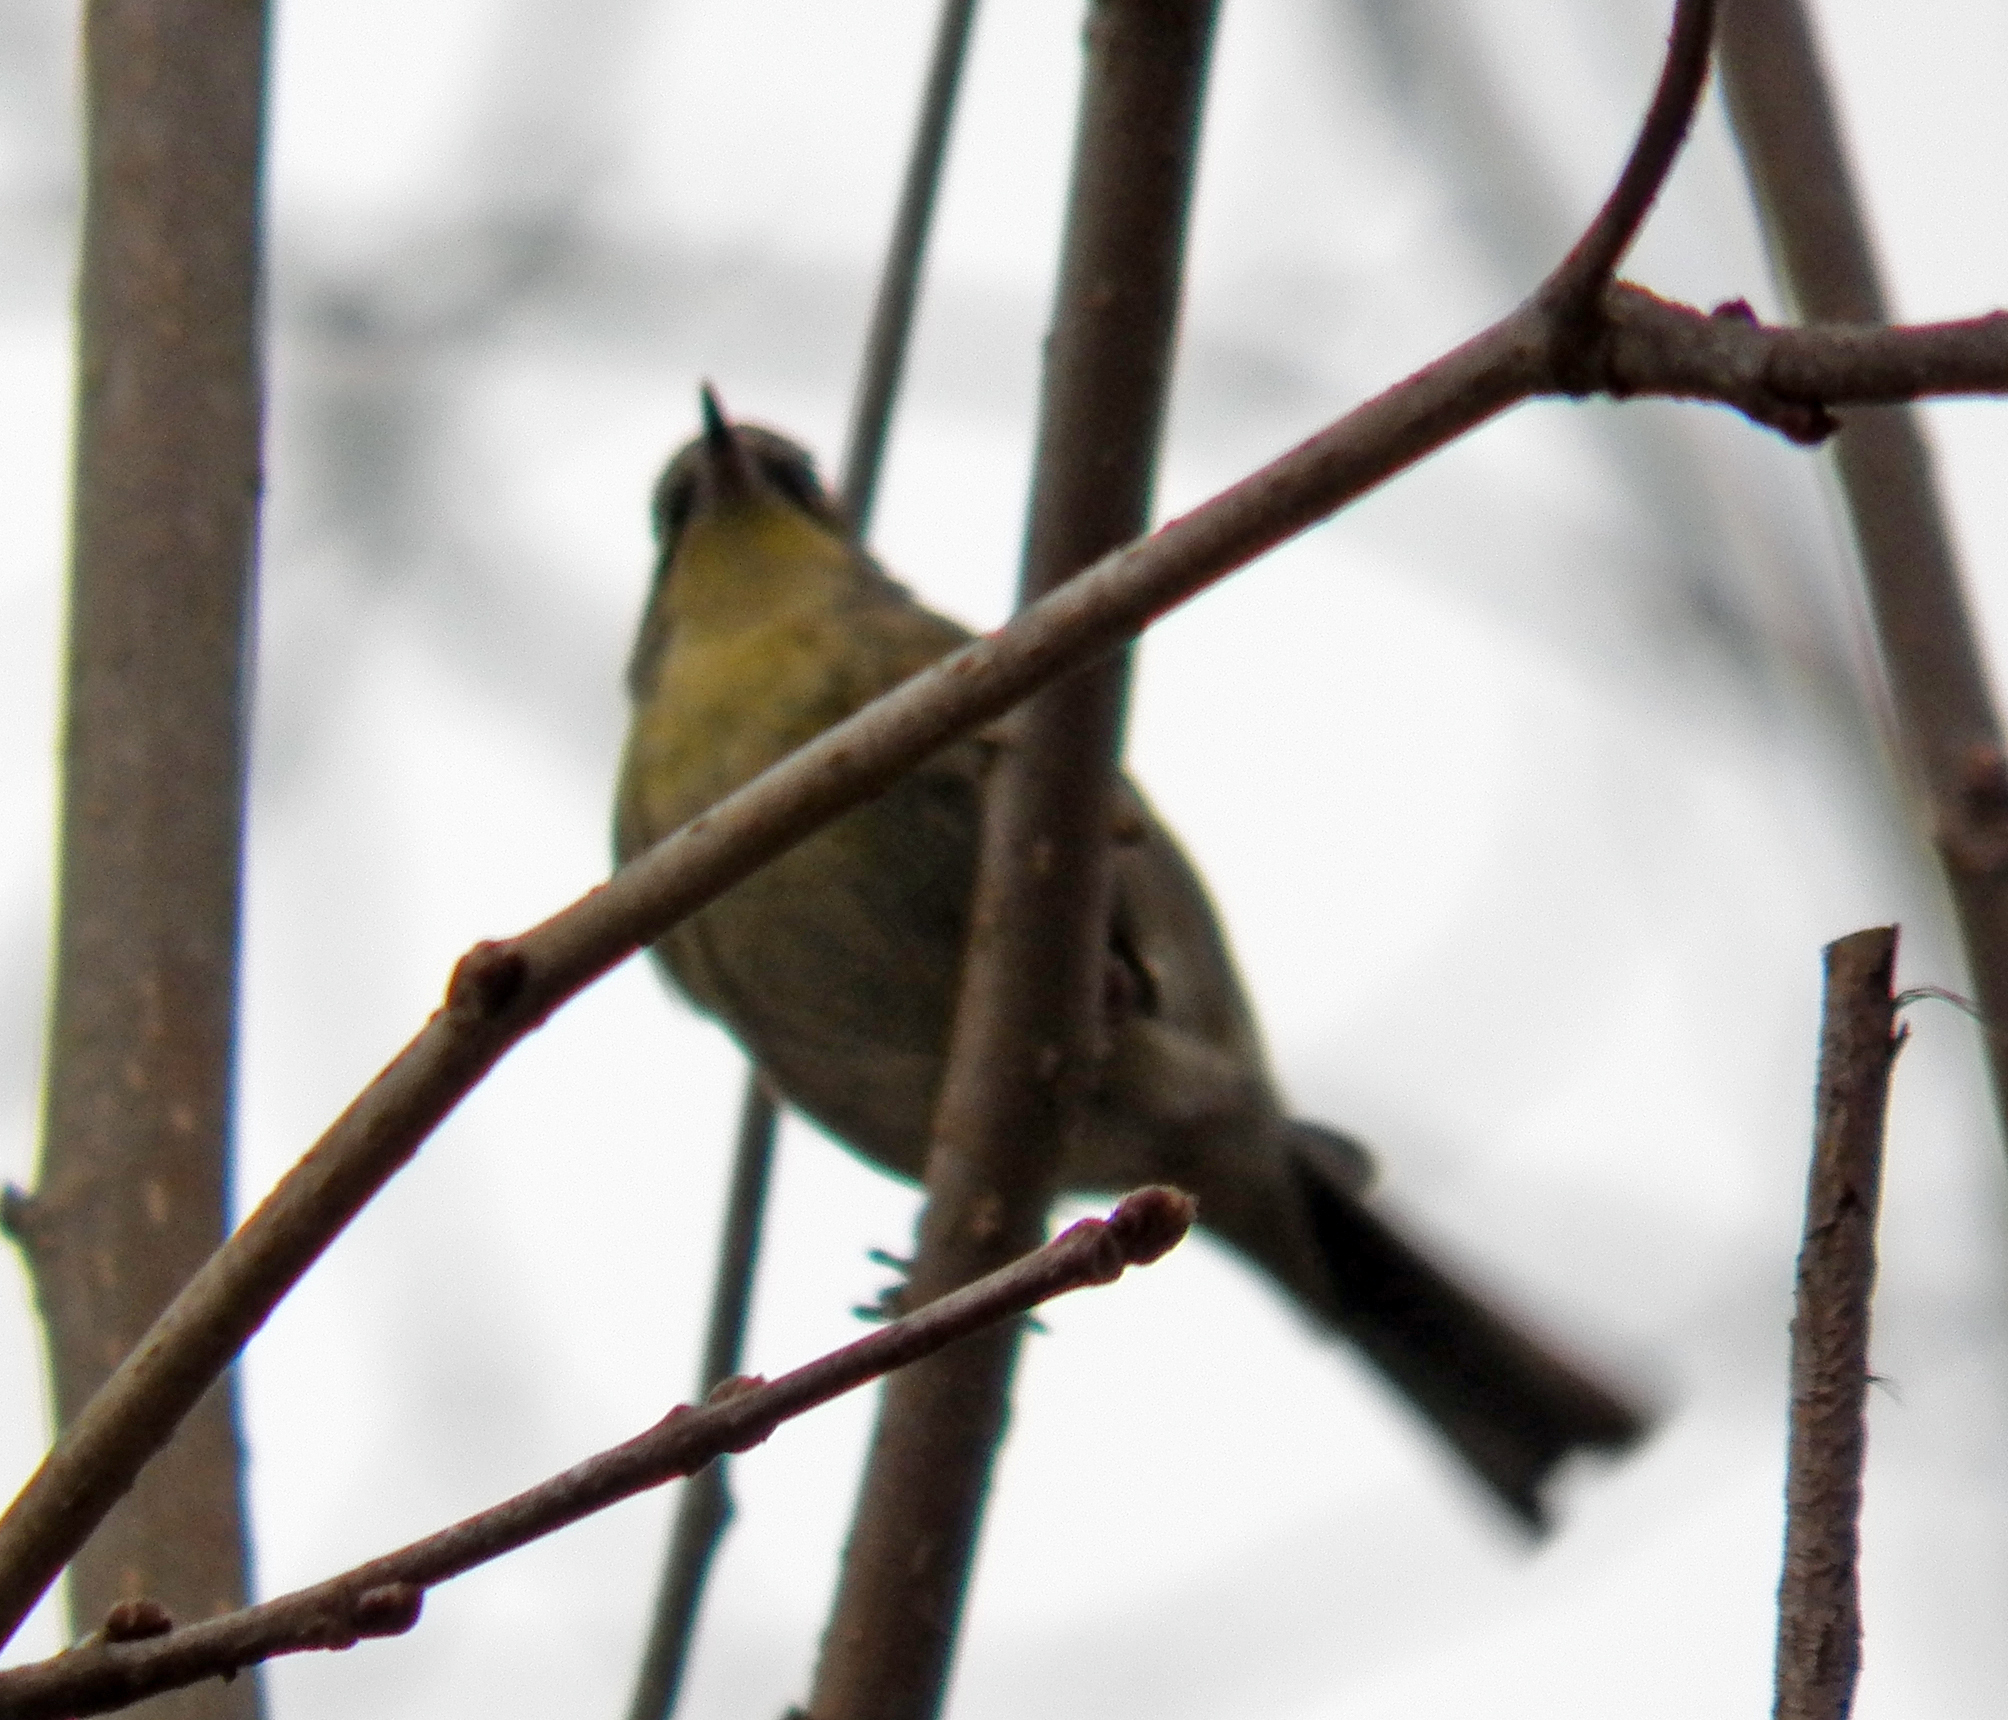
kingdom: Animalia
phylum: Chordata
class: Aves
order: Passeriformes
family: Parulidae
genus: Setophaga
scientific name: Setophaga pinus
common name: Pine warbler
